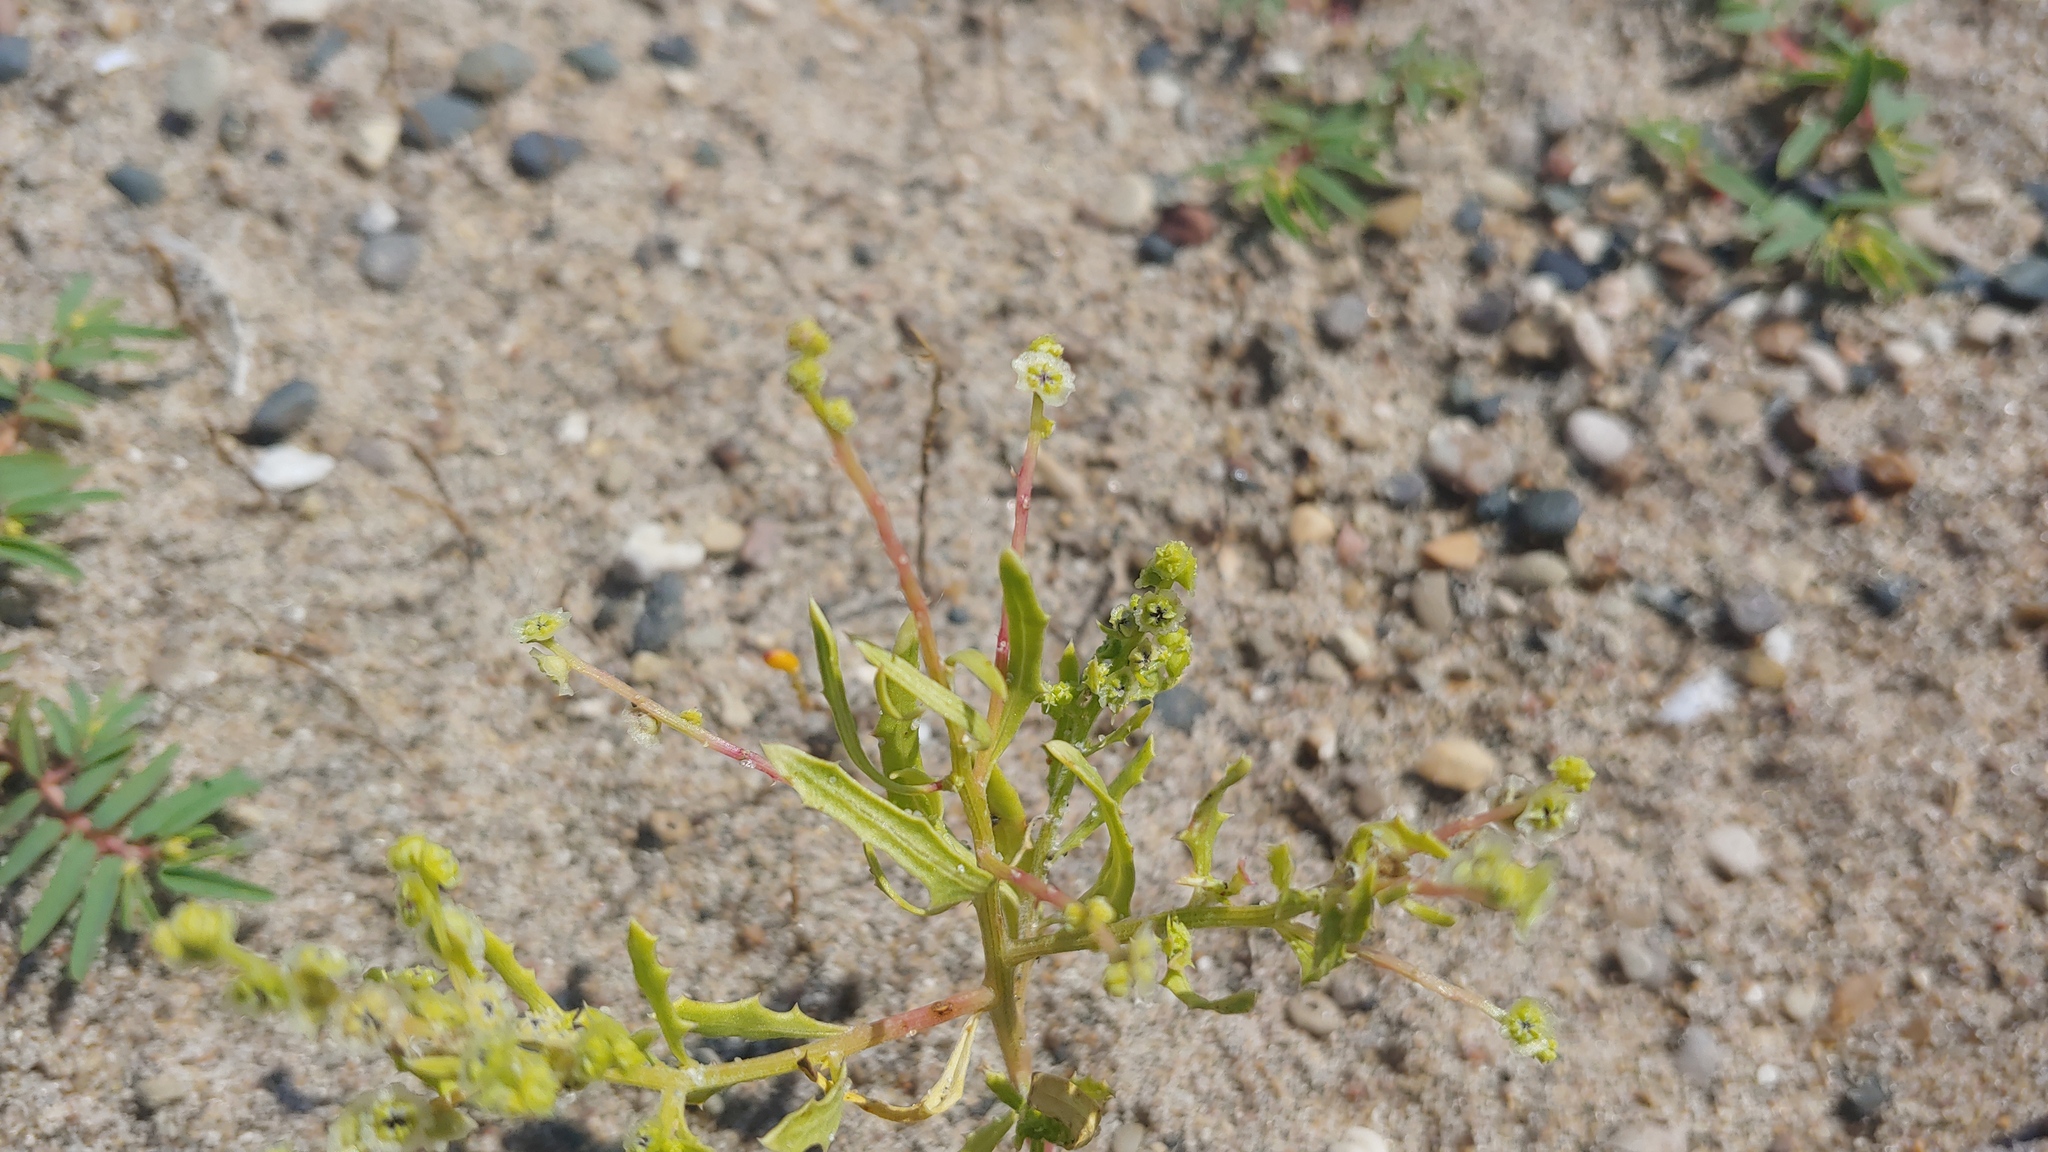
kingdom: Plantae
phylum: Tracheophyta
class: Magnoliopsida
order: Caryophyllales
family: Amaranthaceae
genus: Dysphania
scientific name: Dysphania atriplicifolia
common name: Plains tumbleweed
